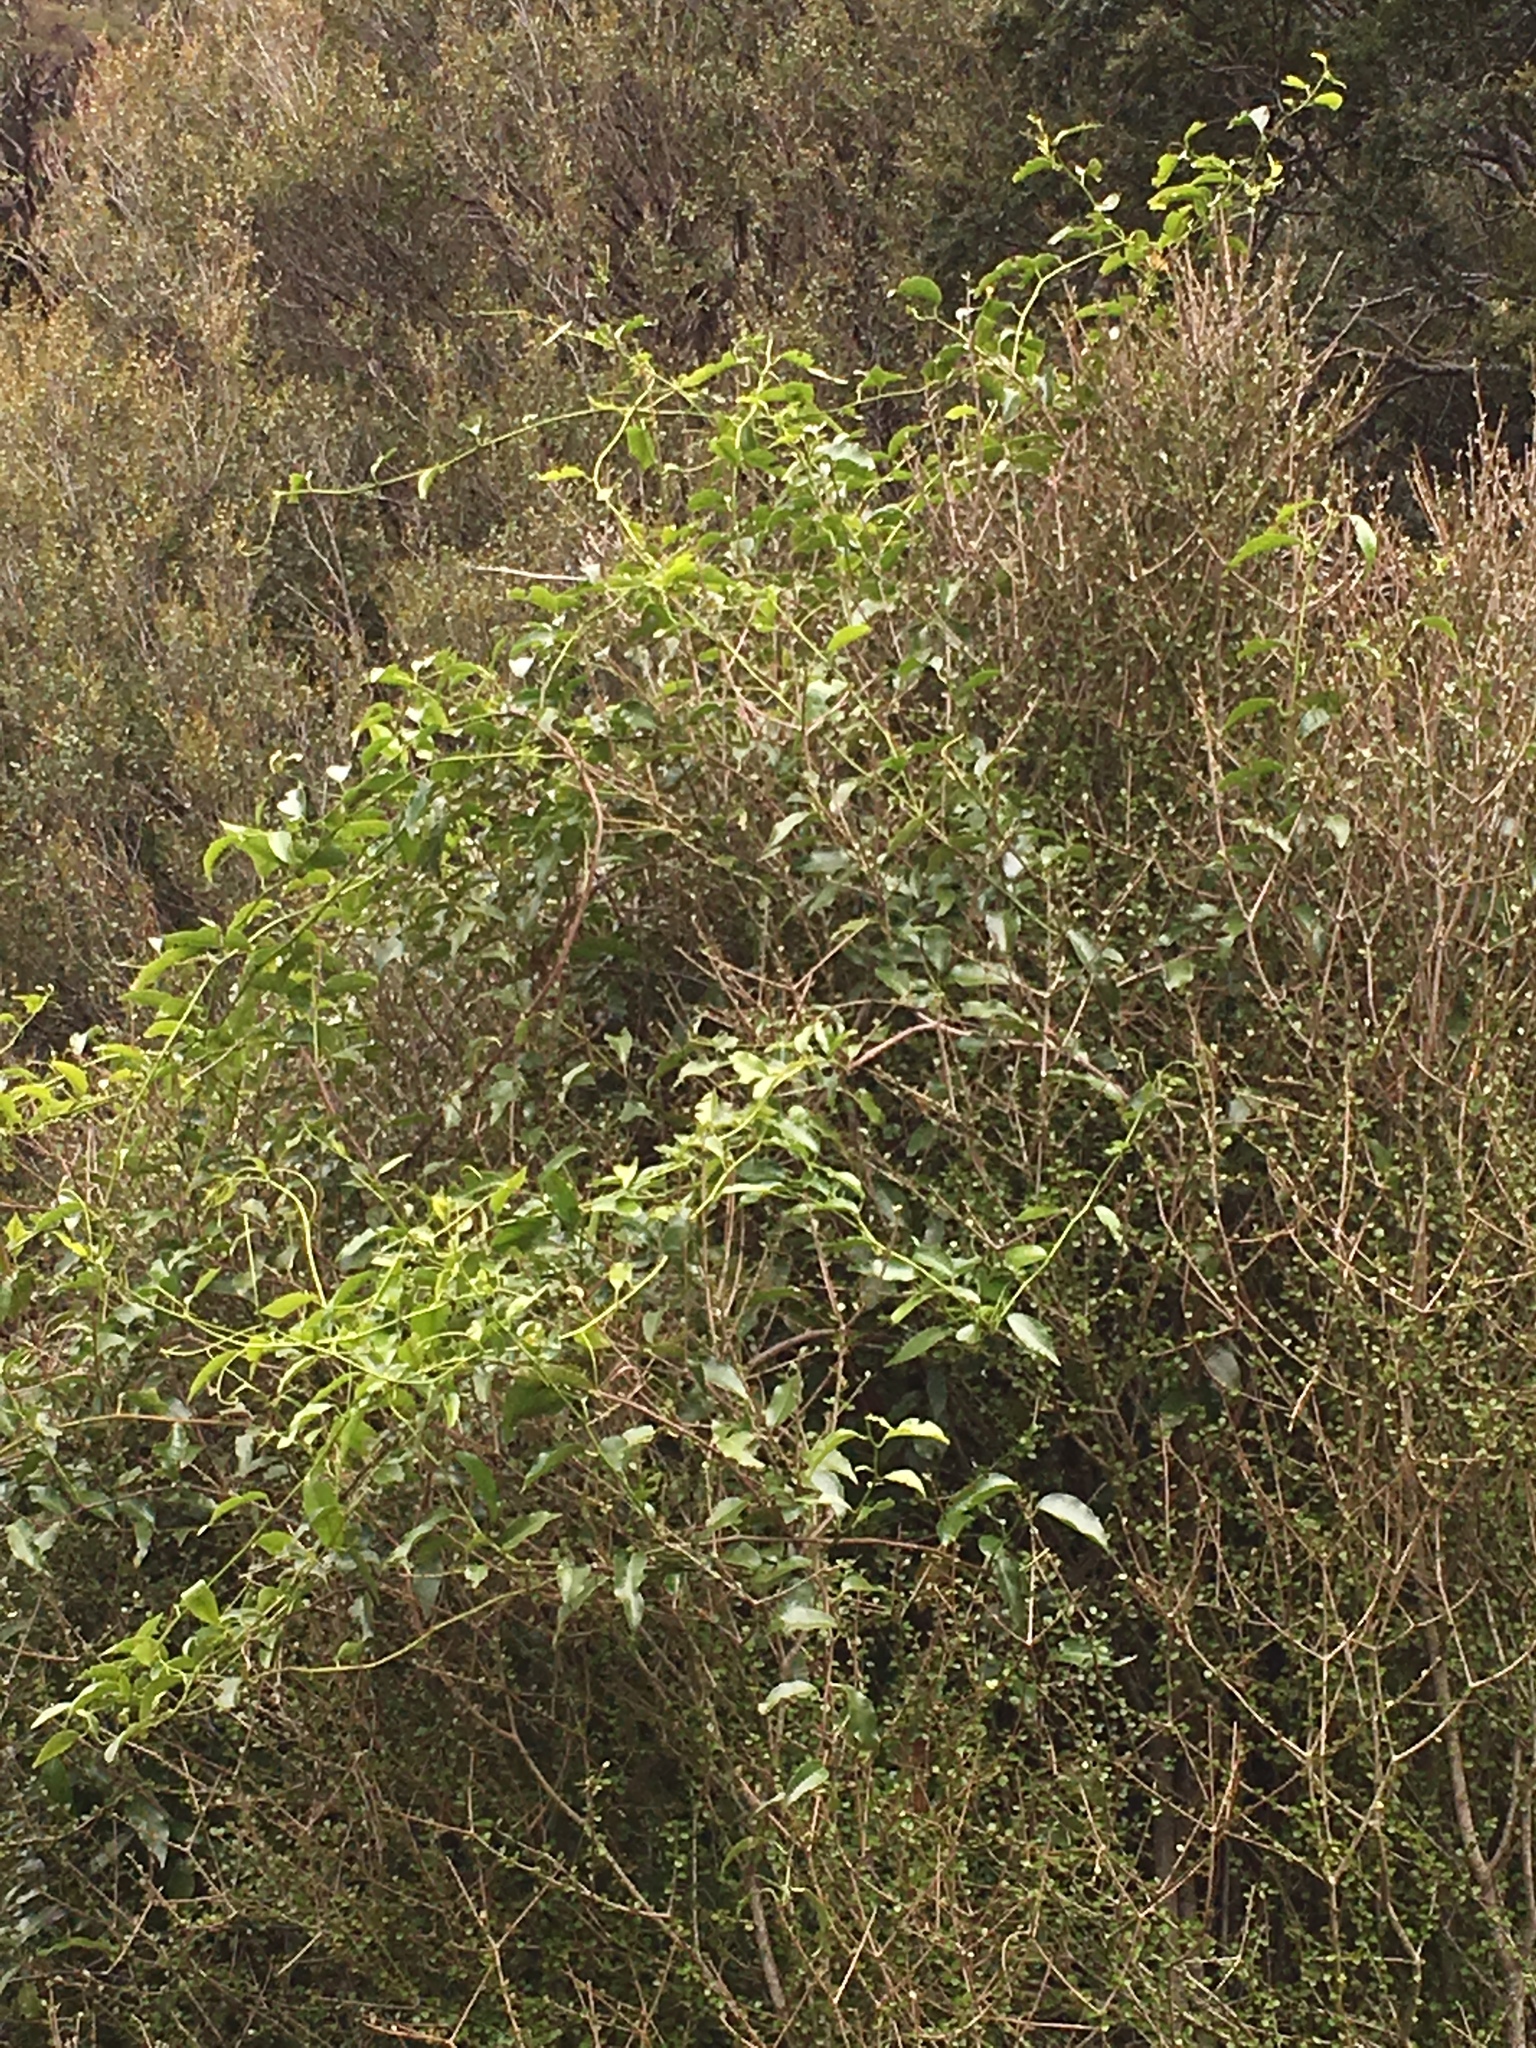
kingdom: Plantae
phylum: Tracheophyta
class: Magnoliopsida
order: Malpighiales
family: Passifloraceae
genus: Passiflora
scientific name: Passiflora tetrandra
